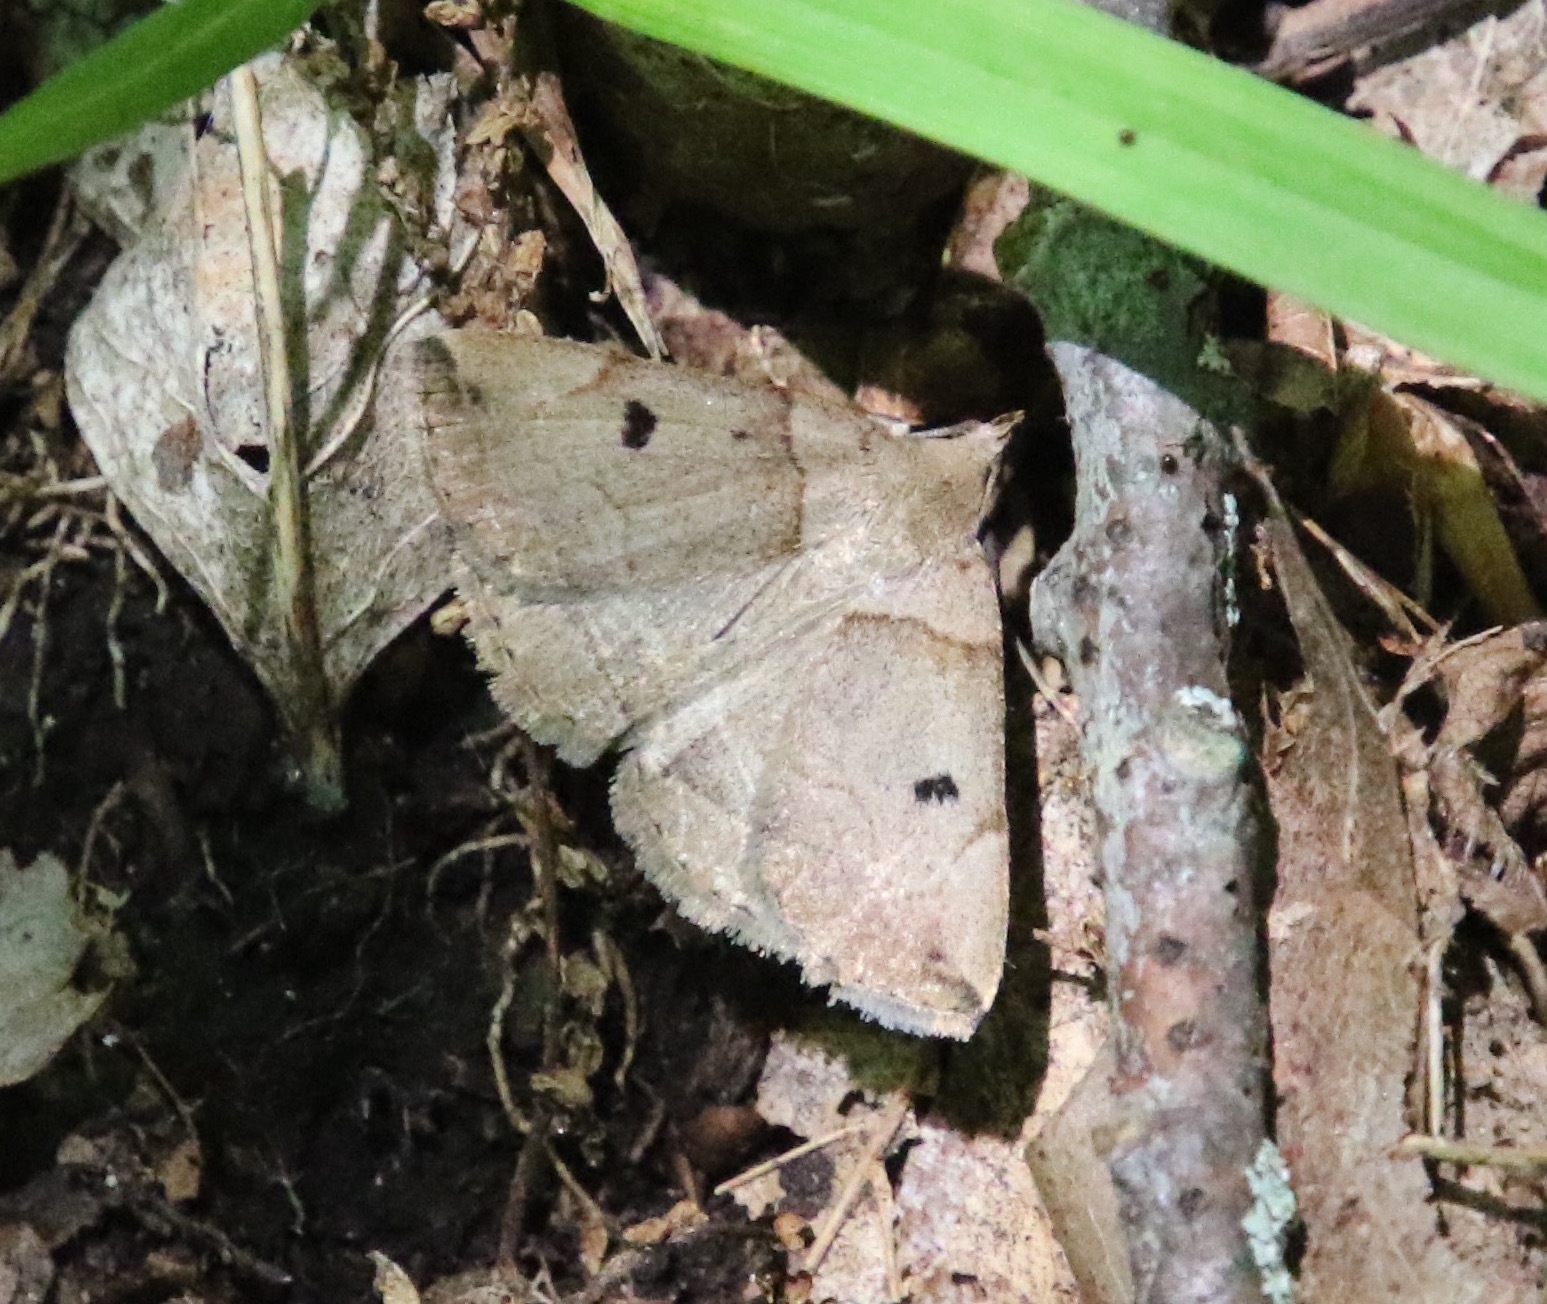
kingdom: Animalia
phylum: Arthropoda
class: Insecta
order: Lepidoptera
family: Erebidae
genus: Zanclognatha
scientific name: Zanclognatha laevigata
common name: Variable fan-foot
